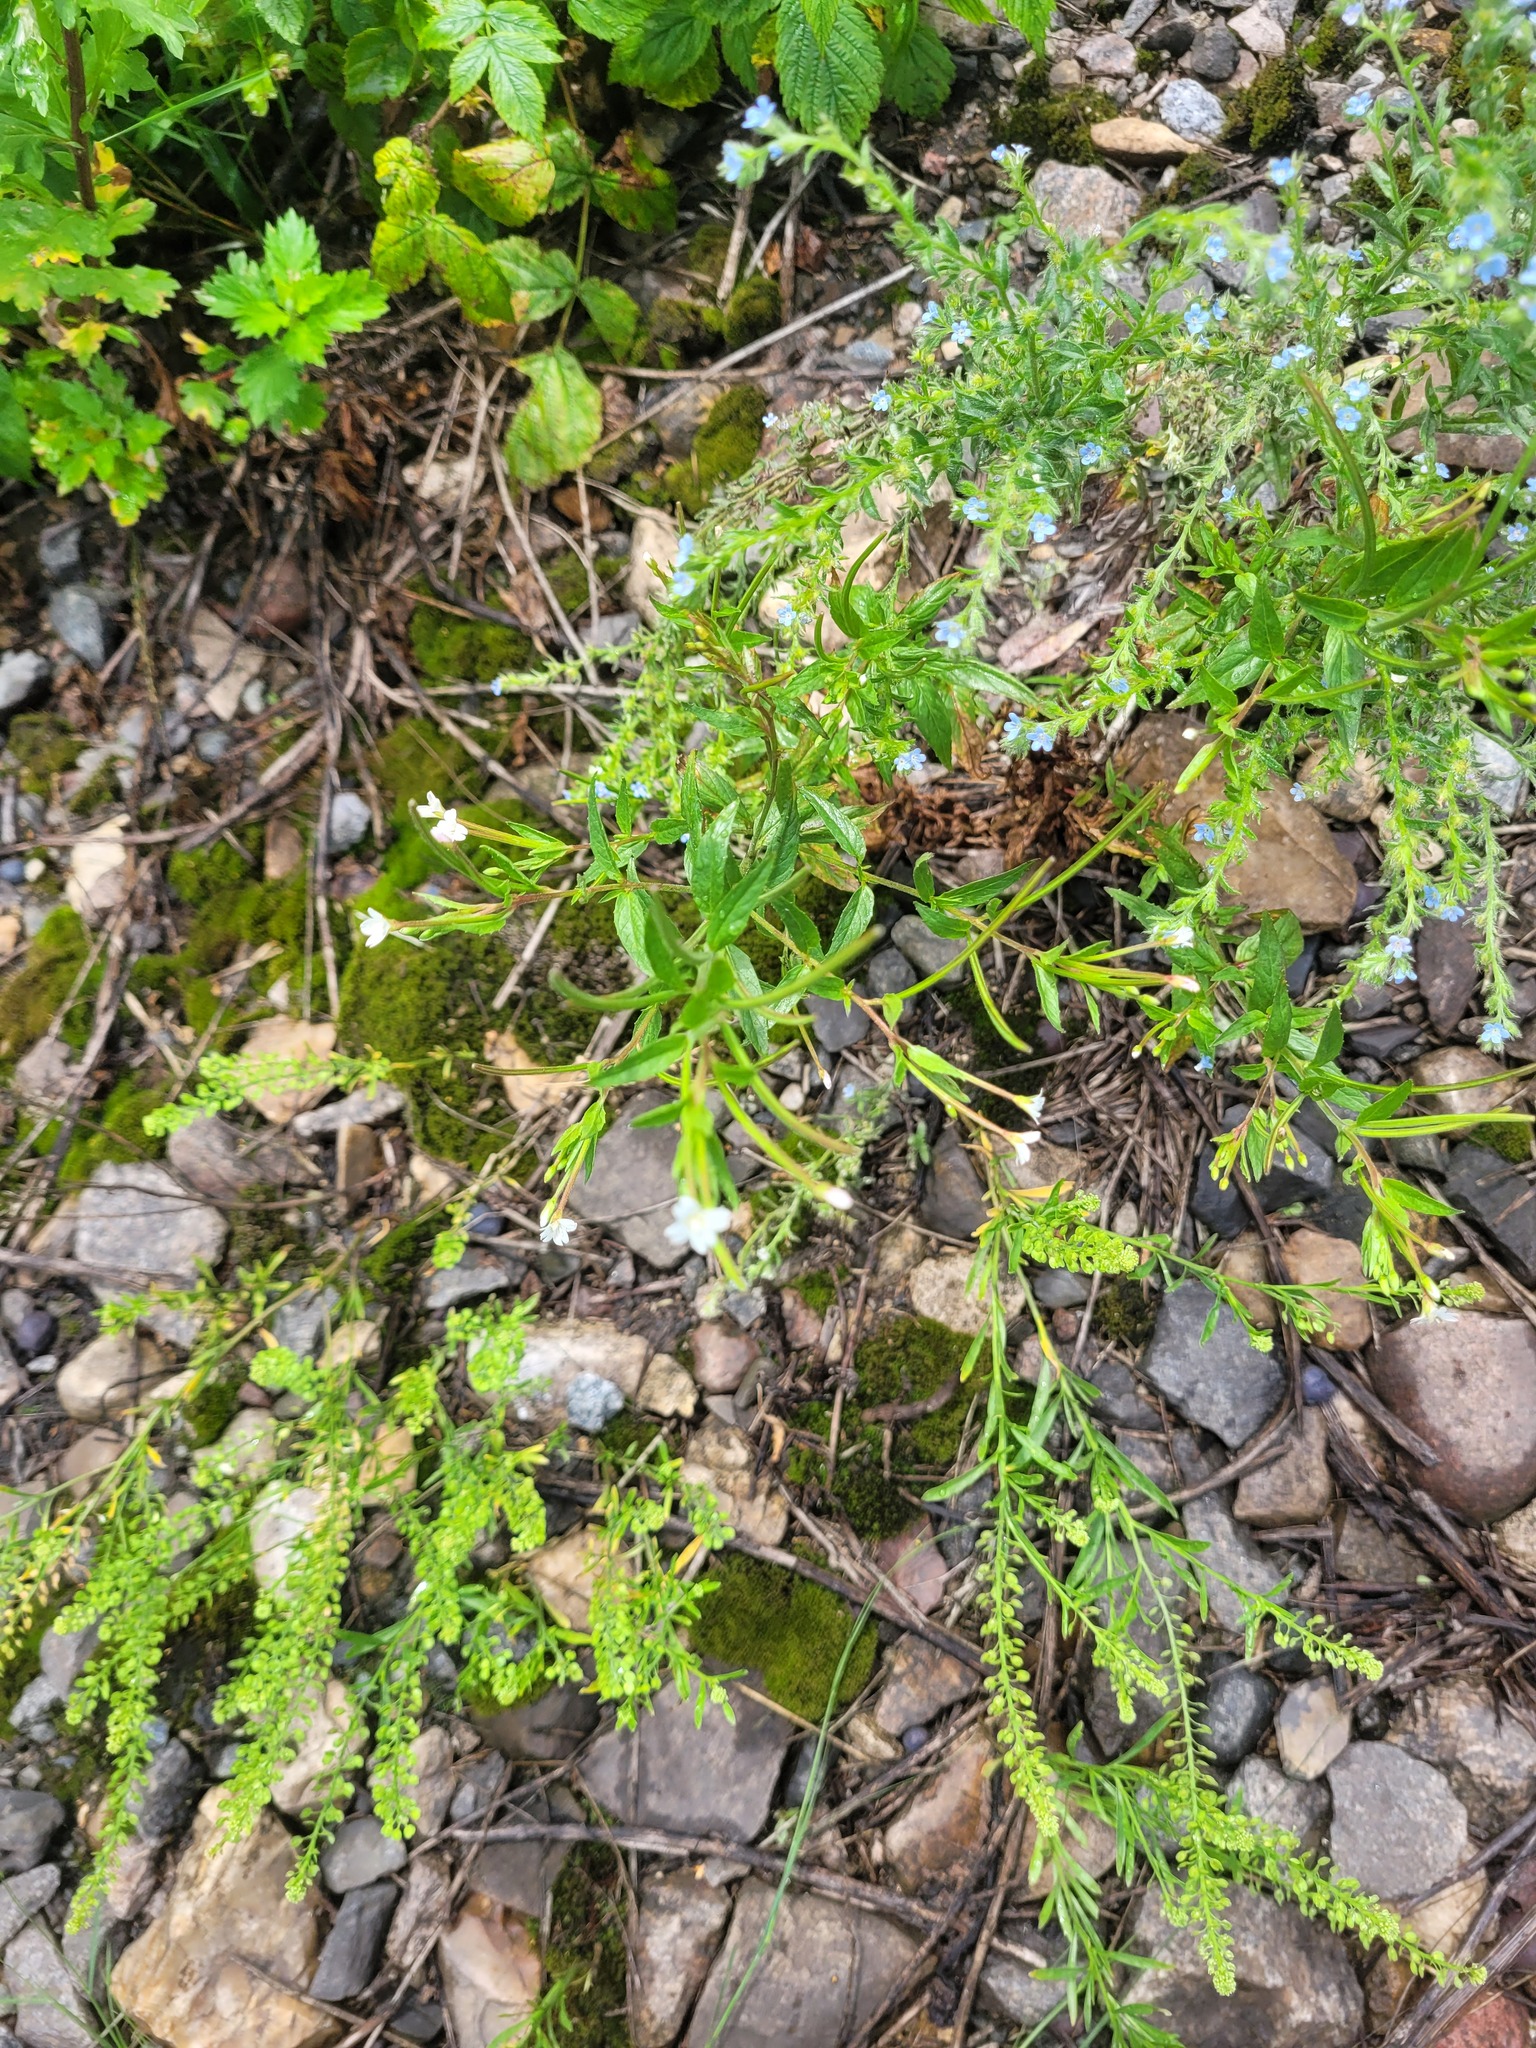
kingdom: Plantae
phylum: Tracheophyta
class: Magnoliopsida
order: Myrtales
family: Onagraceae
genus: Epilobium
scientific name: Epilobium pseudorubescens
